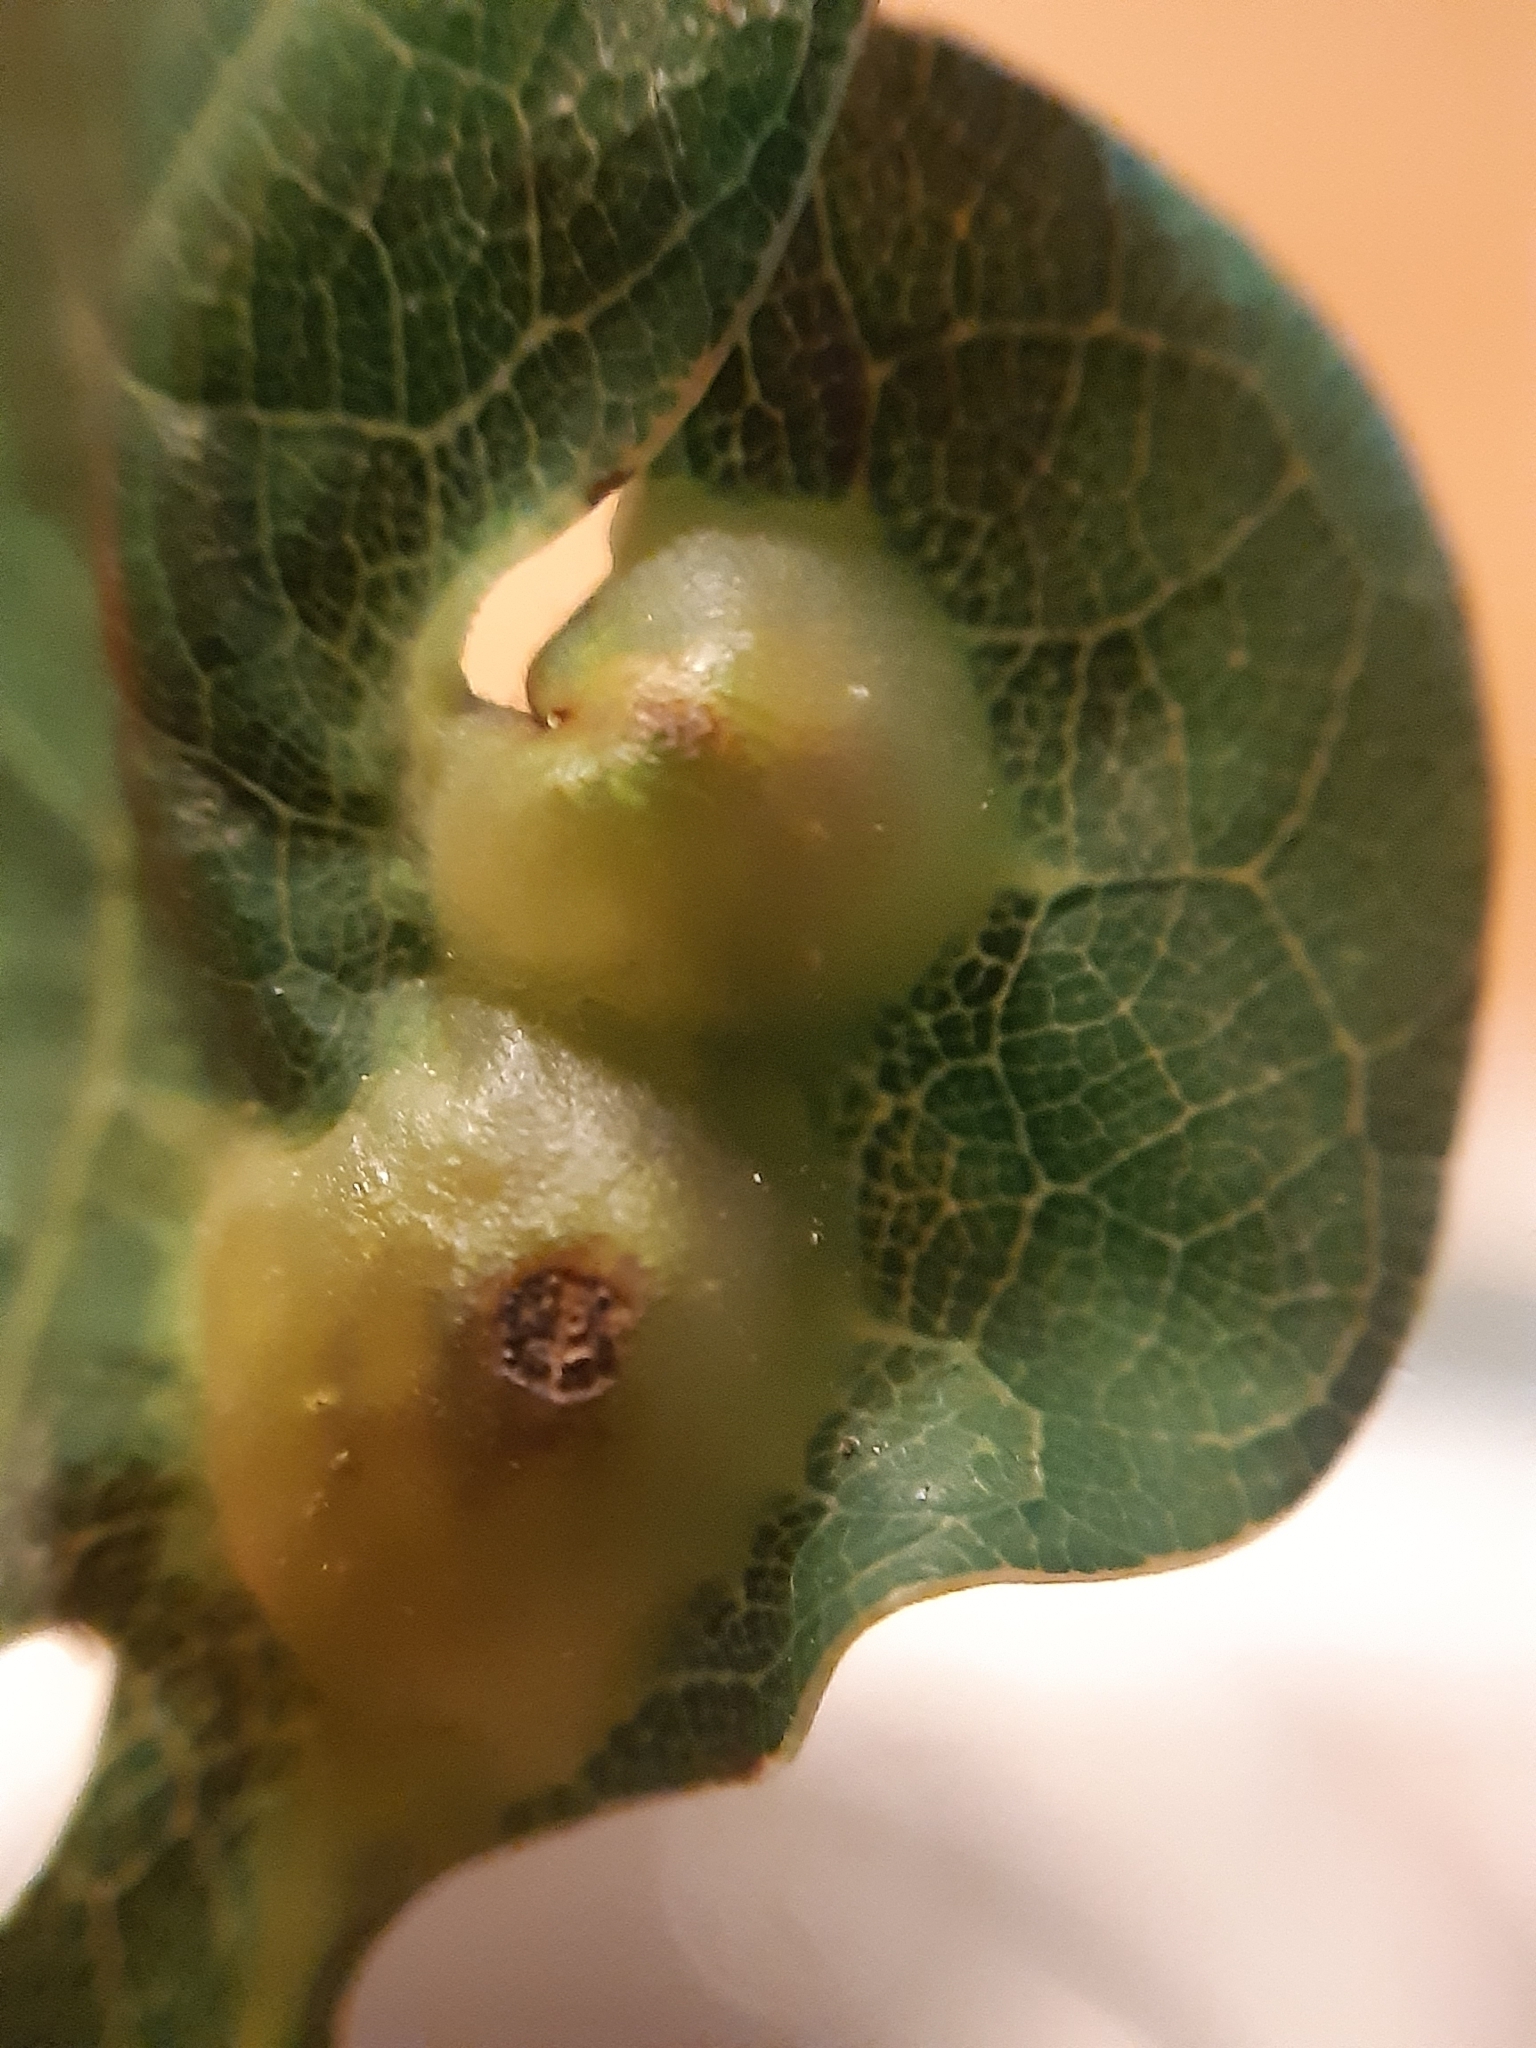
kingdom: Animalia
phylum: Arthropoda
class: Insecta
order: Hymenoptera
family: Cynipidae
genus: Andricus
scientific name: Andricus curvator
